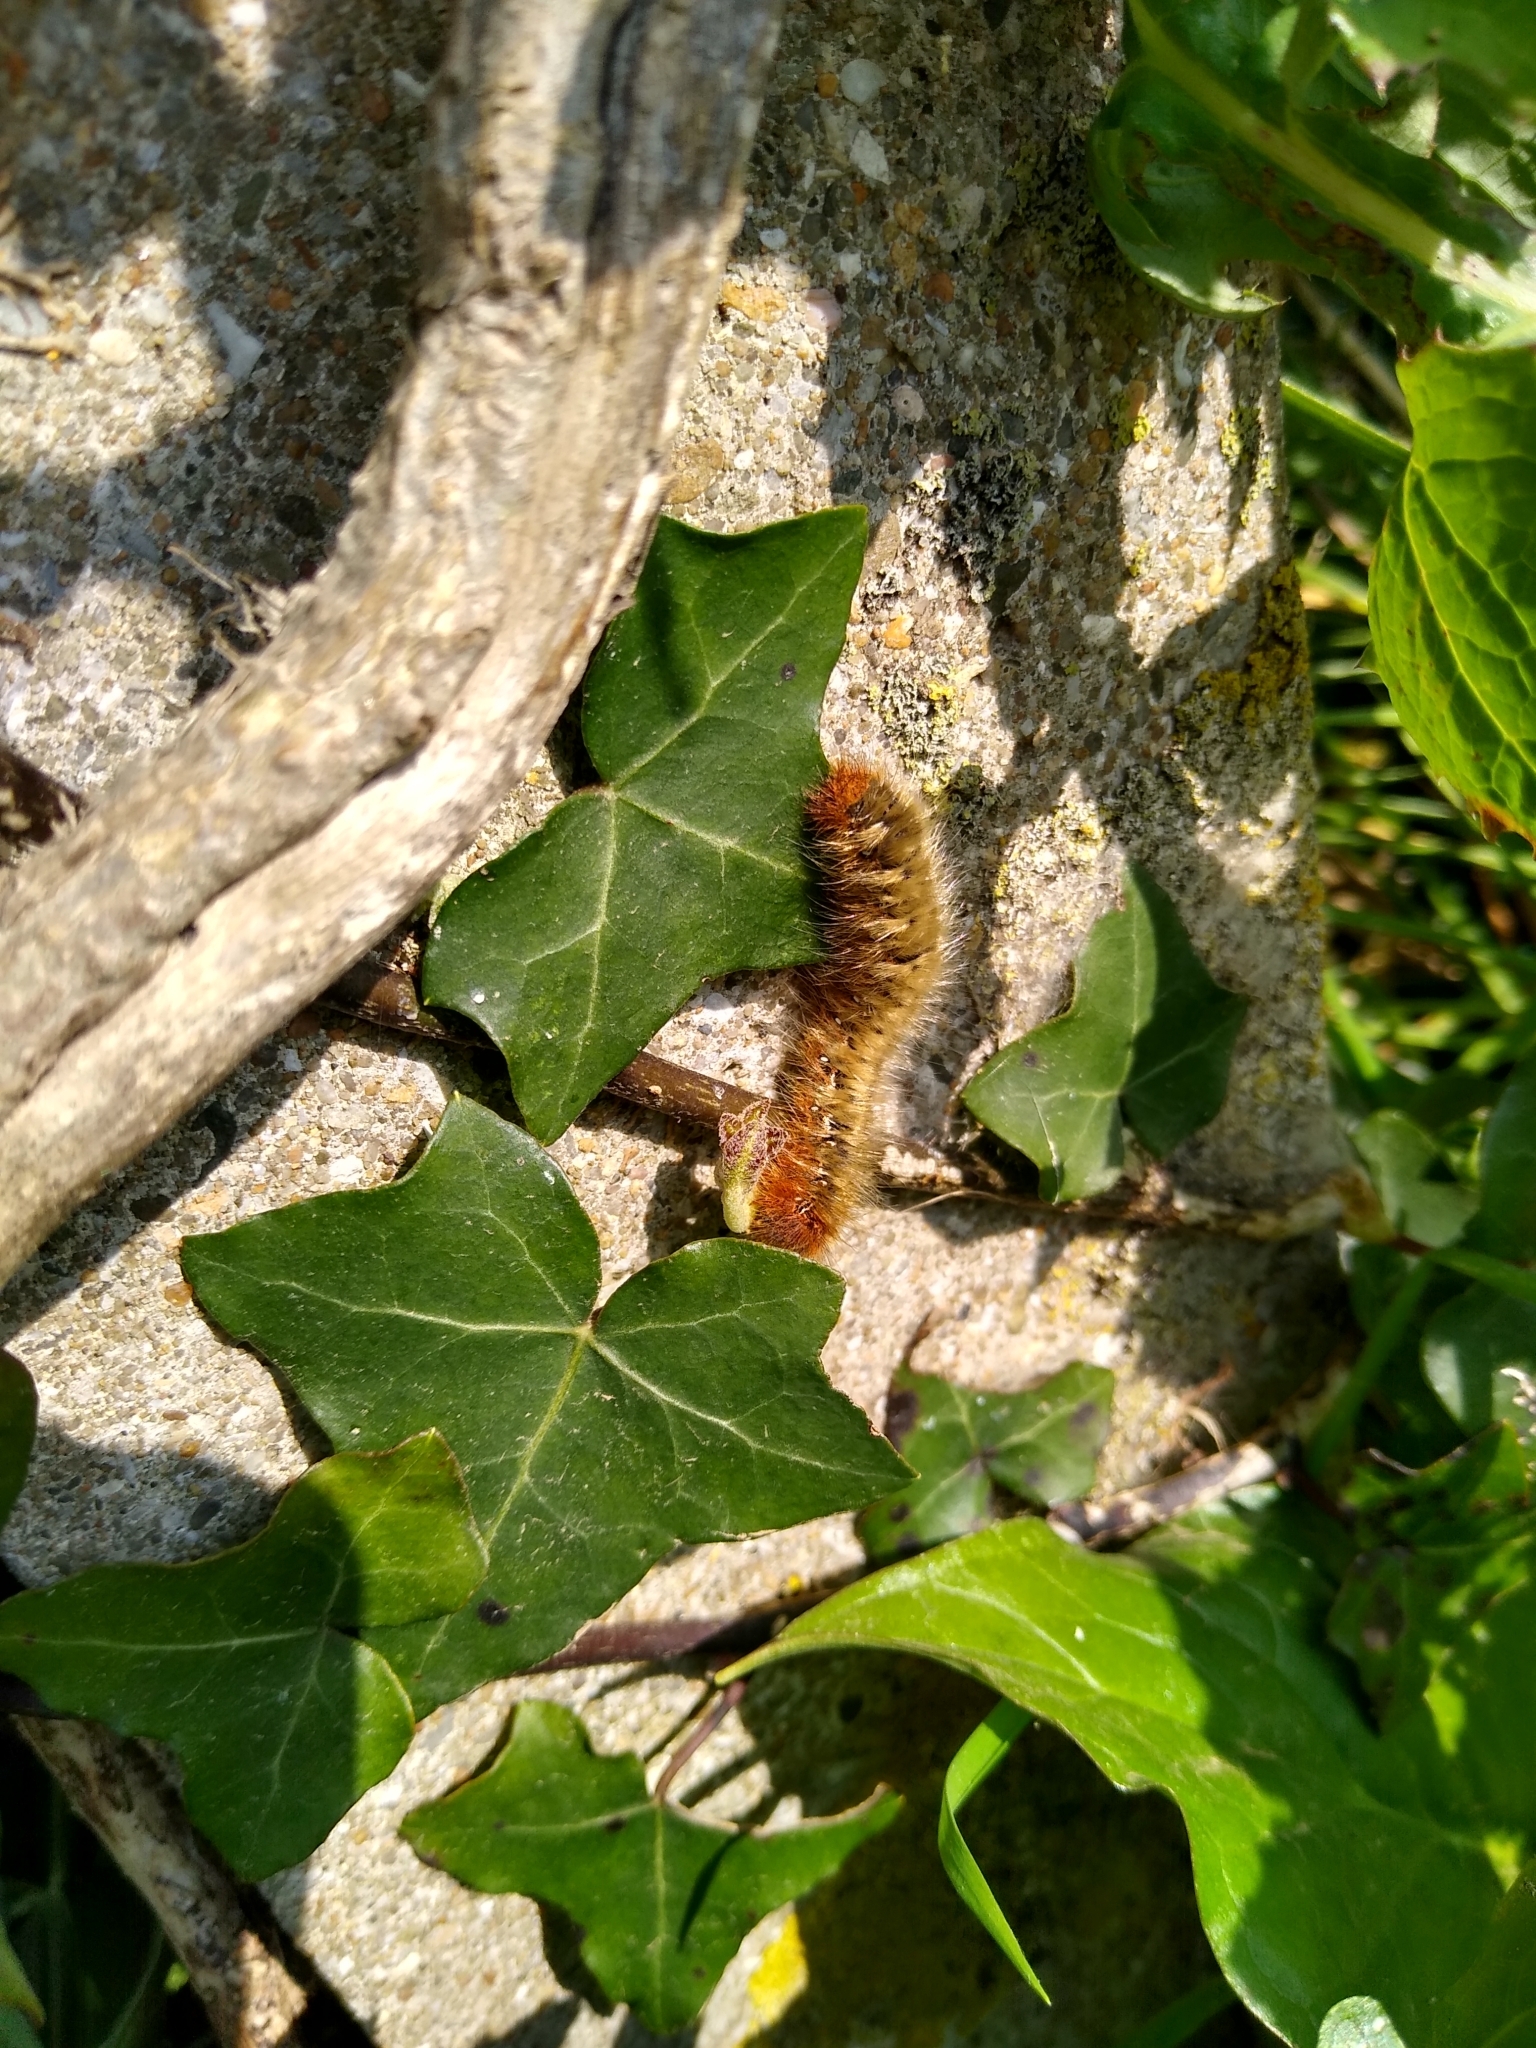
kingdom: Animalia
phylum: Arthropoda
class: Insecta
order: Lepidoptera
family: Lasiocampidae
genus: Lasiocampa
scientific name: Lasiocampa quercus
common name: Oak eggar
